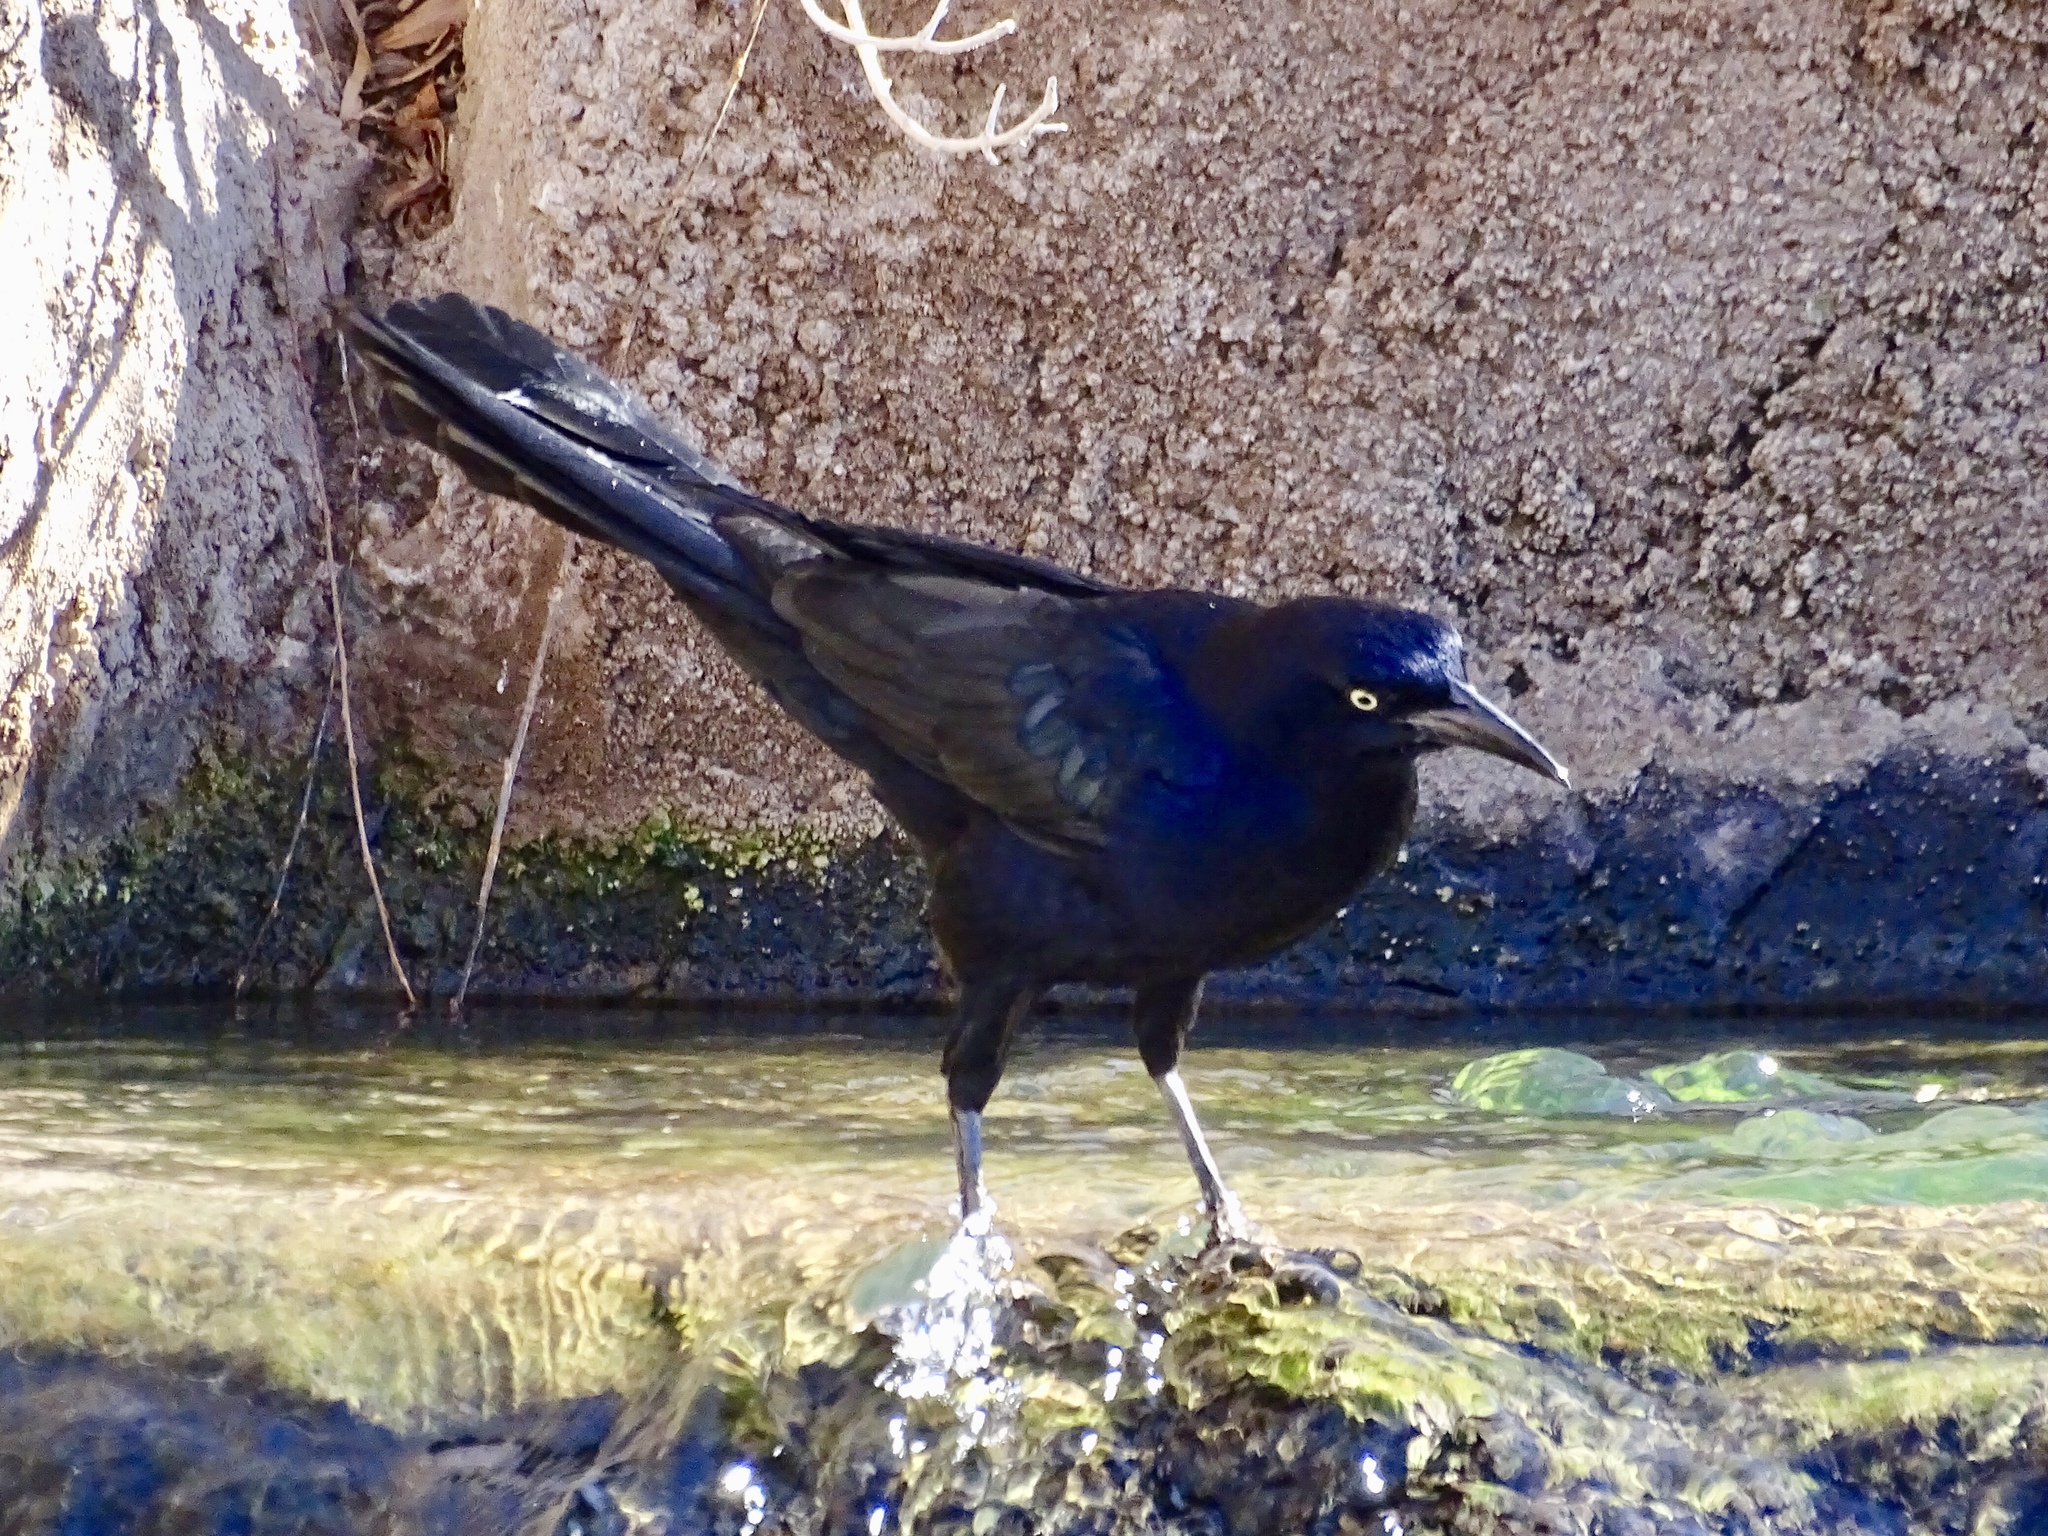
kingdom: Animalia
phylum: Chordata
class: Aves
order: Passeriformes
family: Icteridae
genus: Quiscalus
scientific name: Quiscalus mexicanus
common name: Great-tailed grackle
